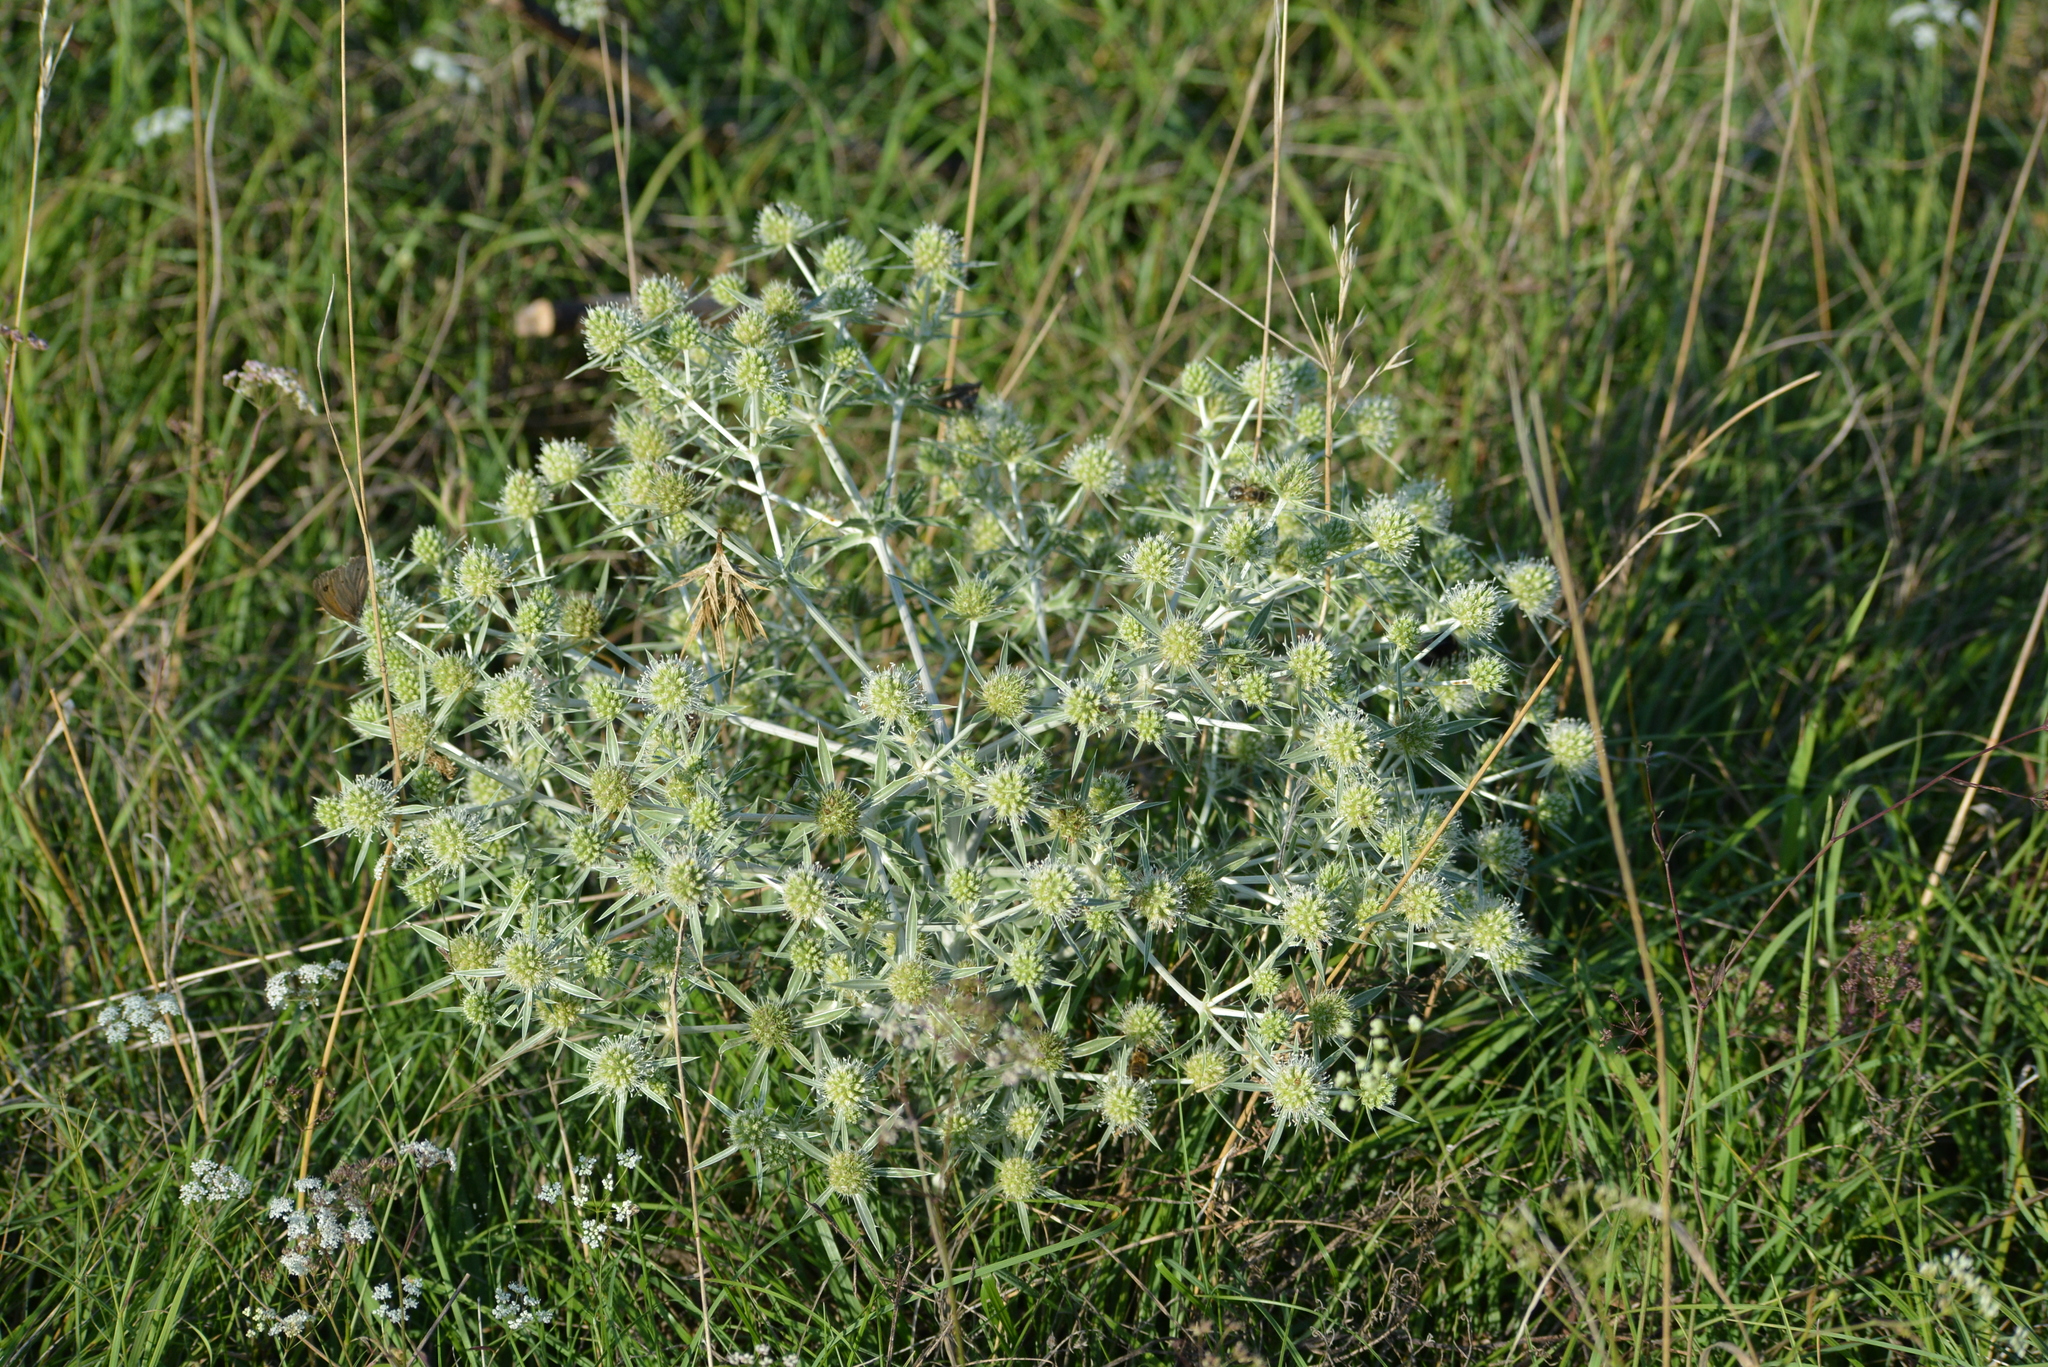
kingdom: Plantae
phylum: Tracheophyta
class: Magnoliopsida
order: Apiales
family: Apiaceae
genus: Eryngium
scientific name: Eryngium campestre
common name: Field eryngo
